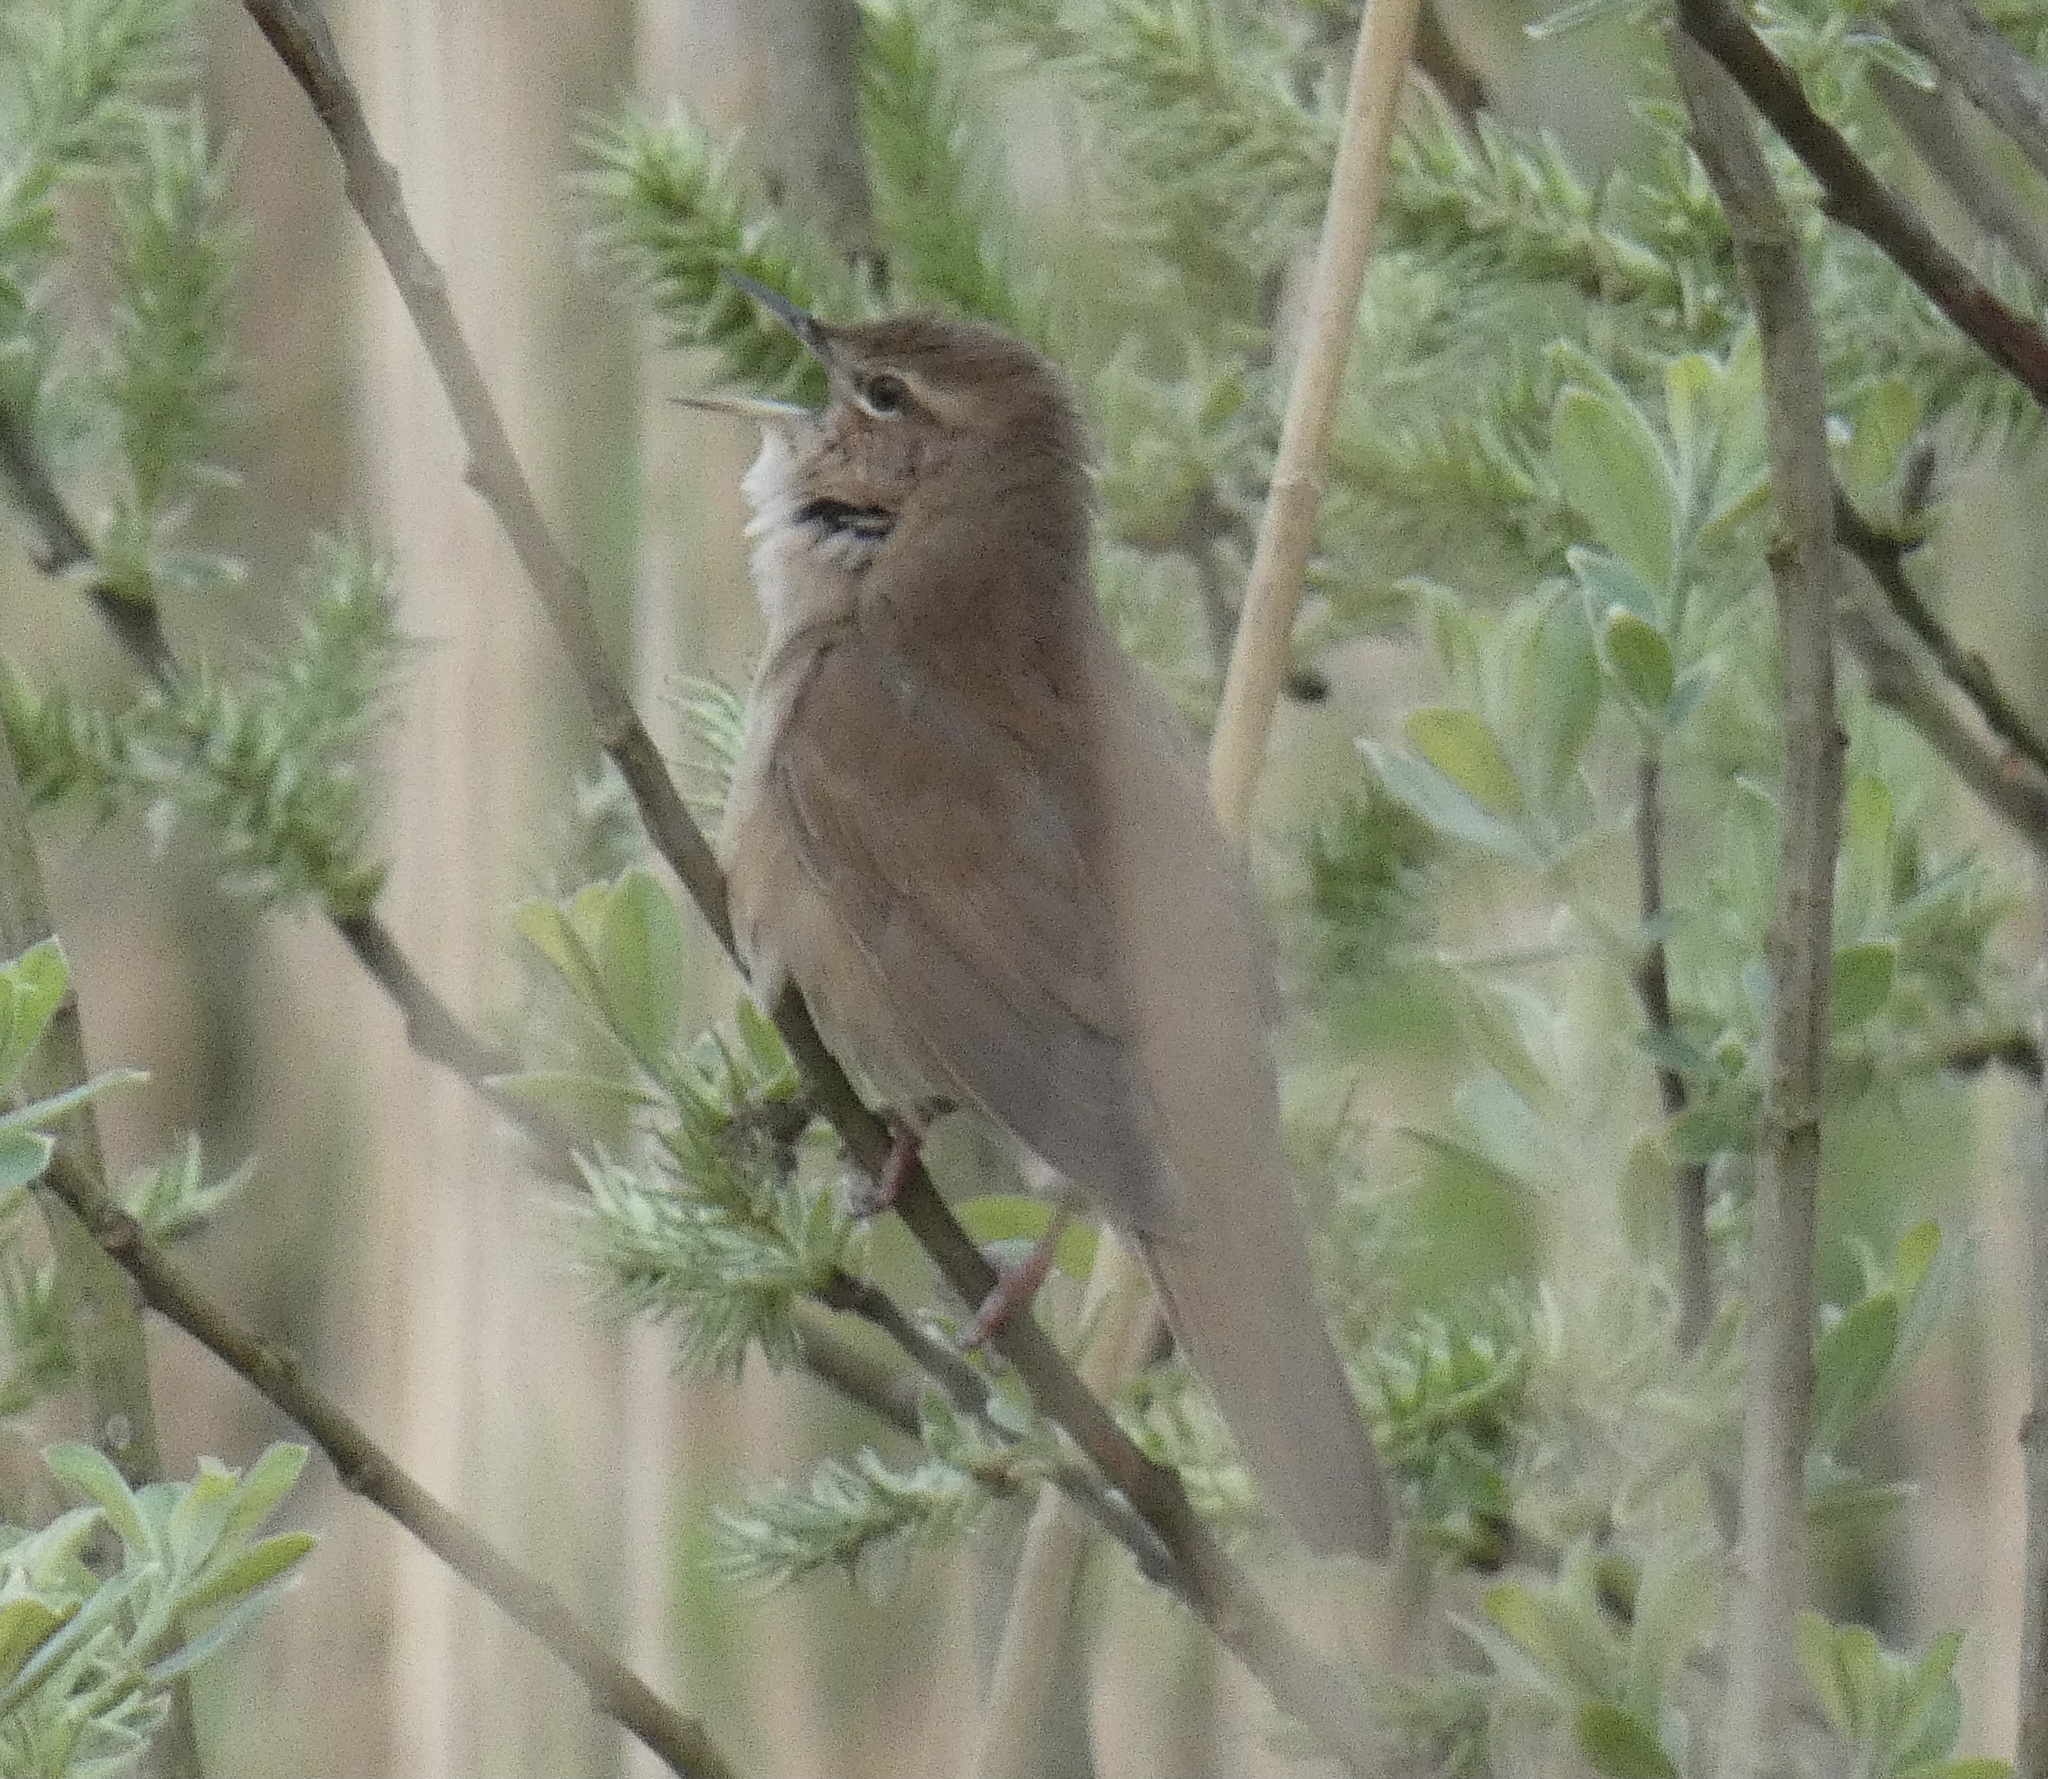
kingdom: Animalia
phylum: Chordata
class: Aves
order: Passeriformes
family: Locustellidae
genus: Locustella
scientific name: Locustella luscinioides
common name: Savi's warbler
